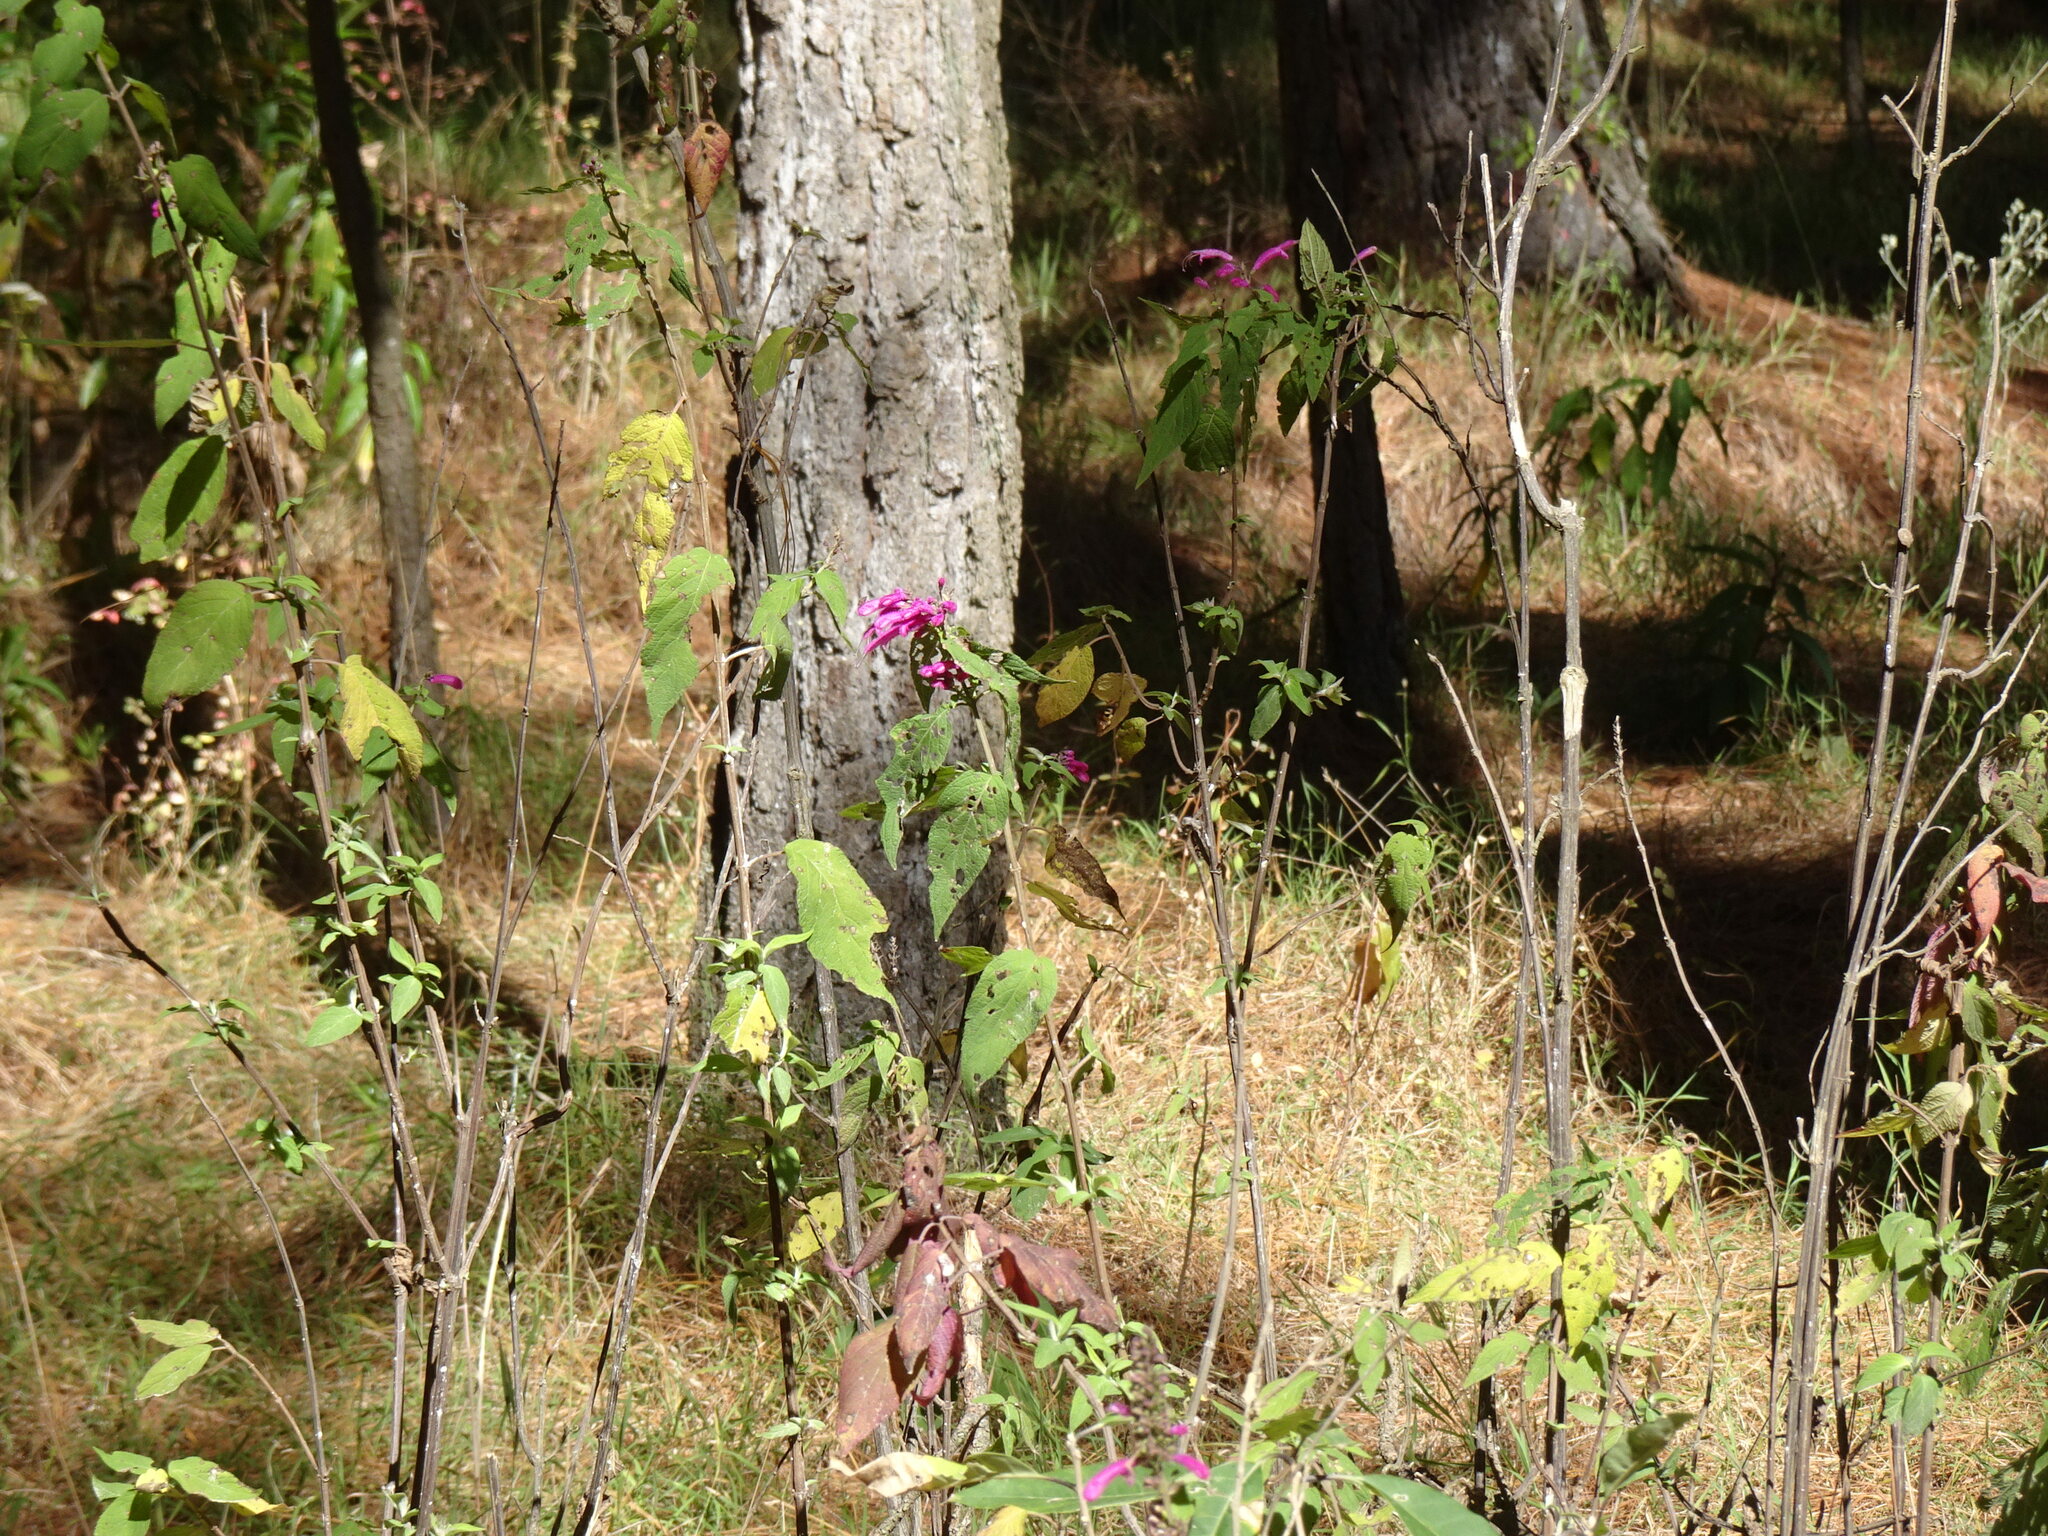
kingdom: Plantae
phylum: Tracheophyta
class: Magnoliopsida
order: Lamiales
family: Lamiaceae
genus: Salvia
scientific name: Salvia iodantha
